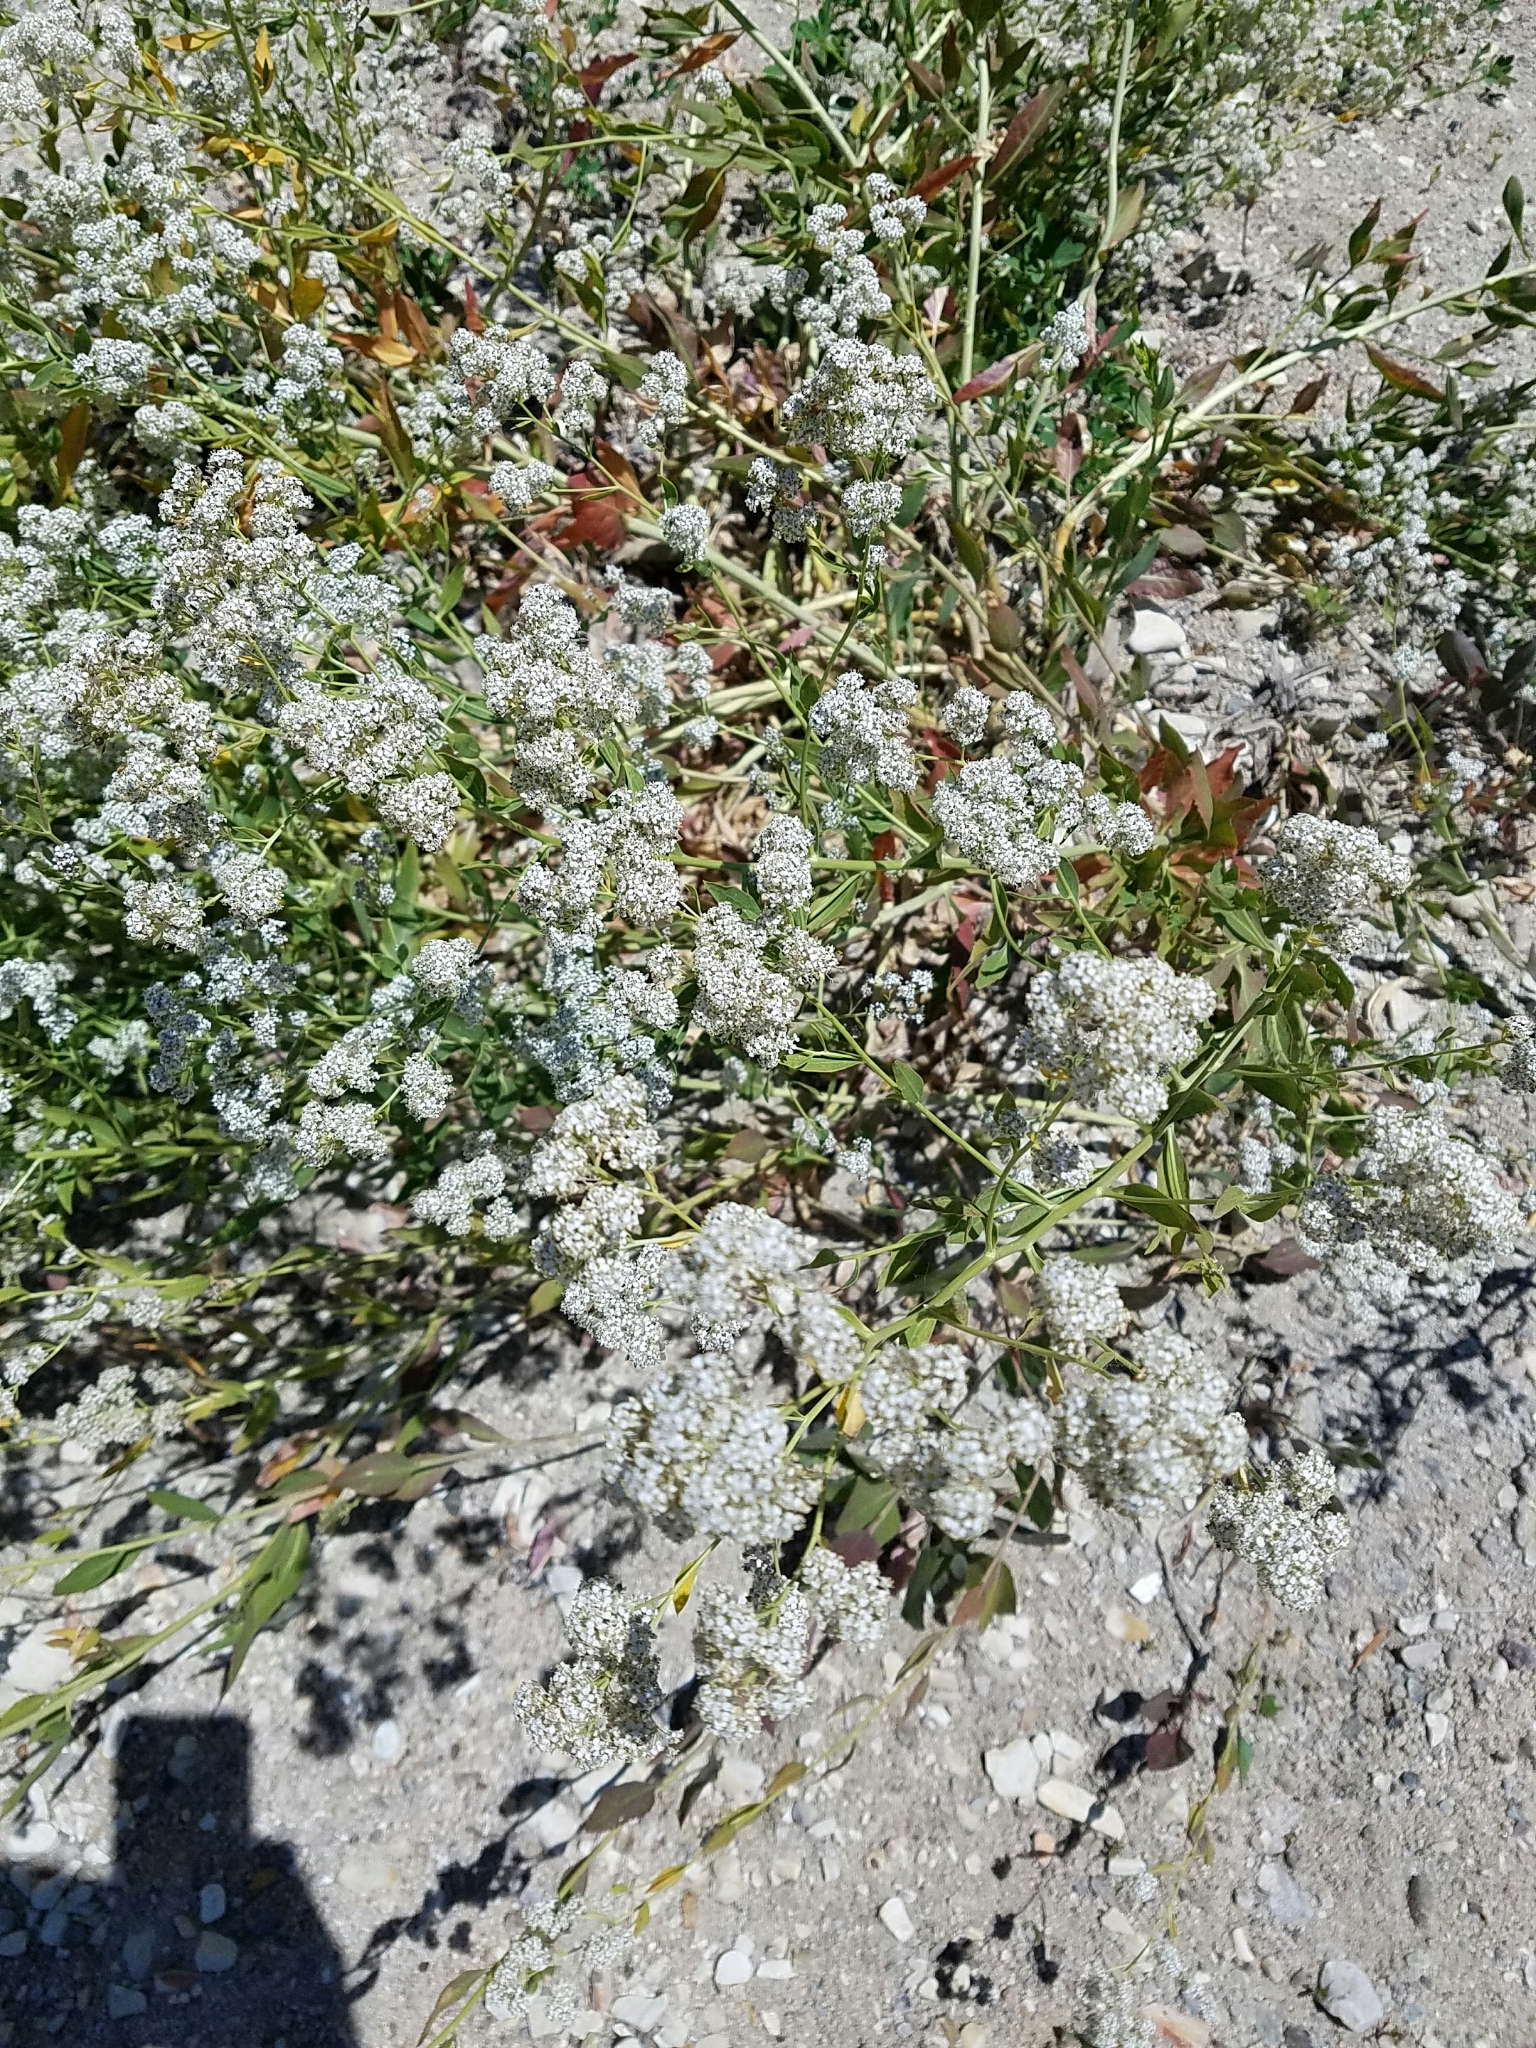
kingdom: Plantae
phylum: Tracheophyta
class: Magnoliopsida
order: Brassicales
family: Brassicaceae
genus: Lepidium
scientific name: Lepidium latifolium
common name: Dittander
